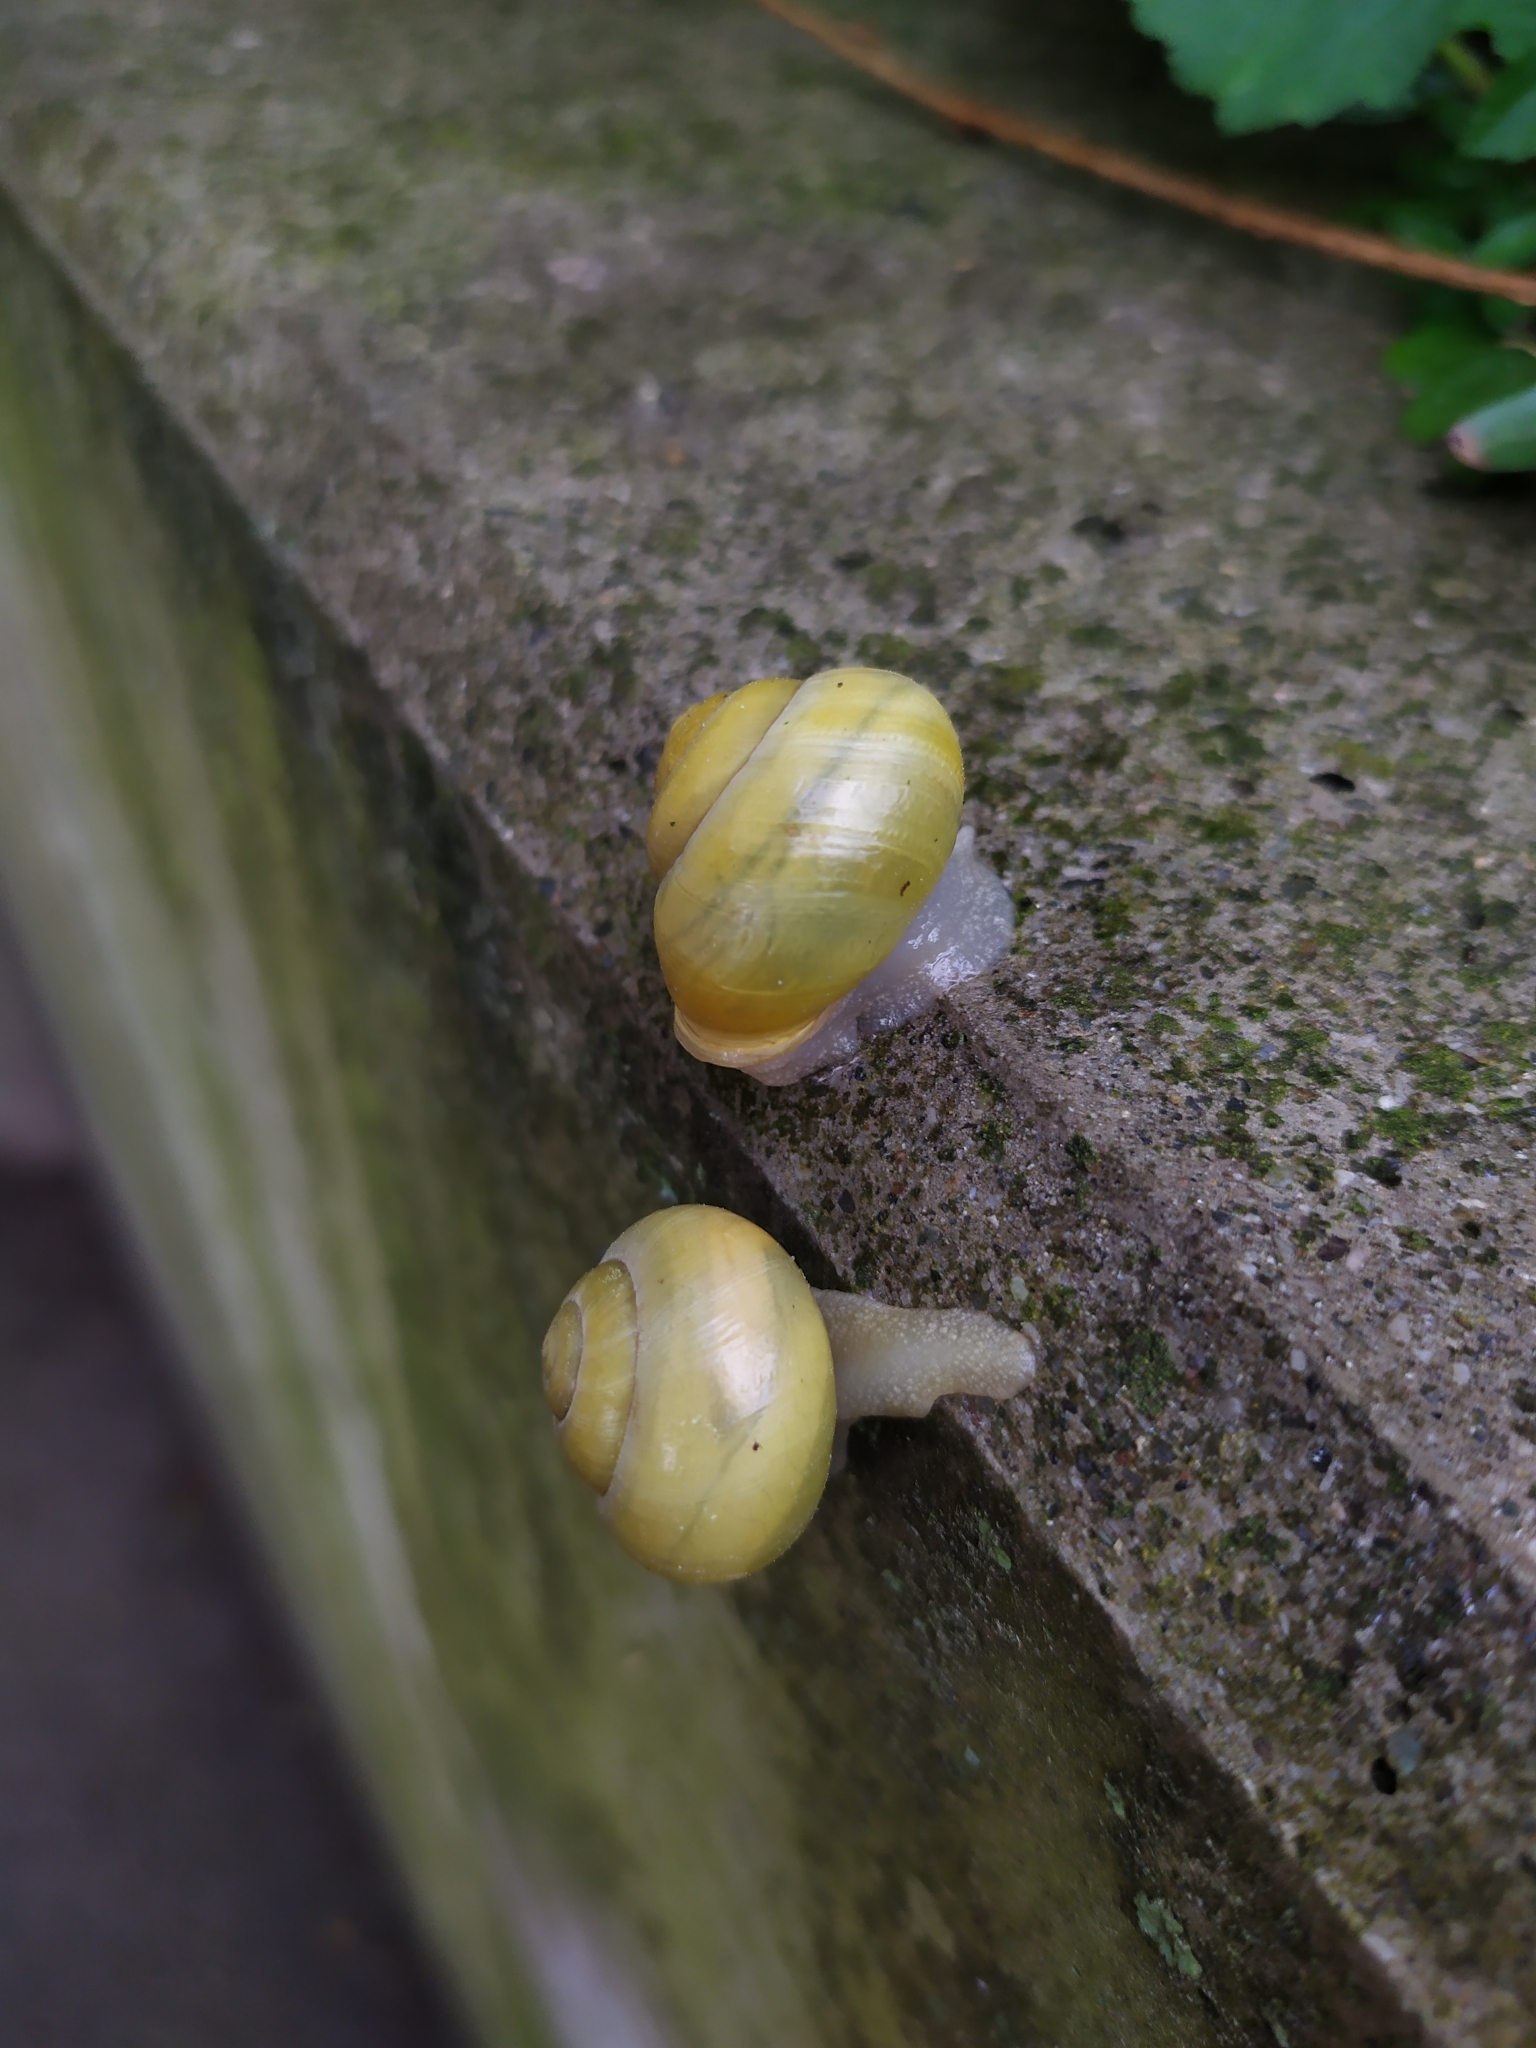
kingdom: Animalia
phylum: Mollusca
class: Gastropoda
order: Stylommatophora
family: Helicidae
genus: Cepaea
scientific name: Cepaea hortensis
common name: White-lip gardensnail
